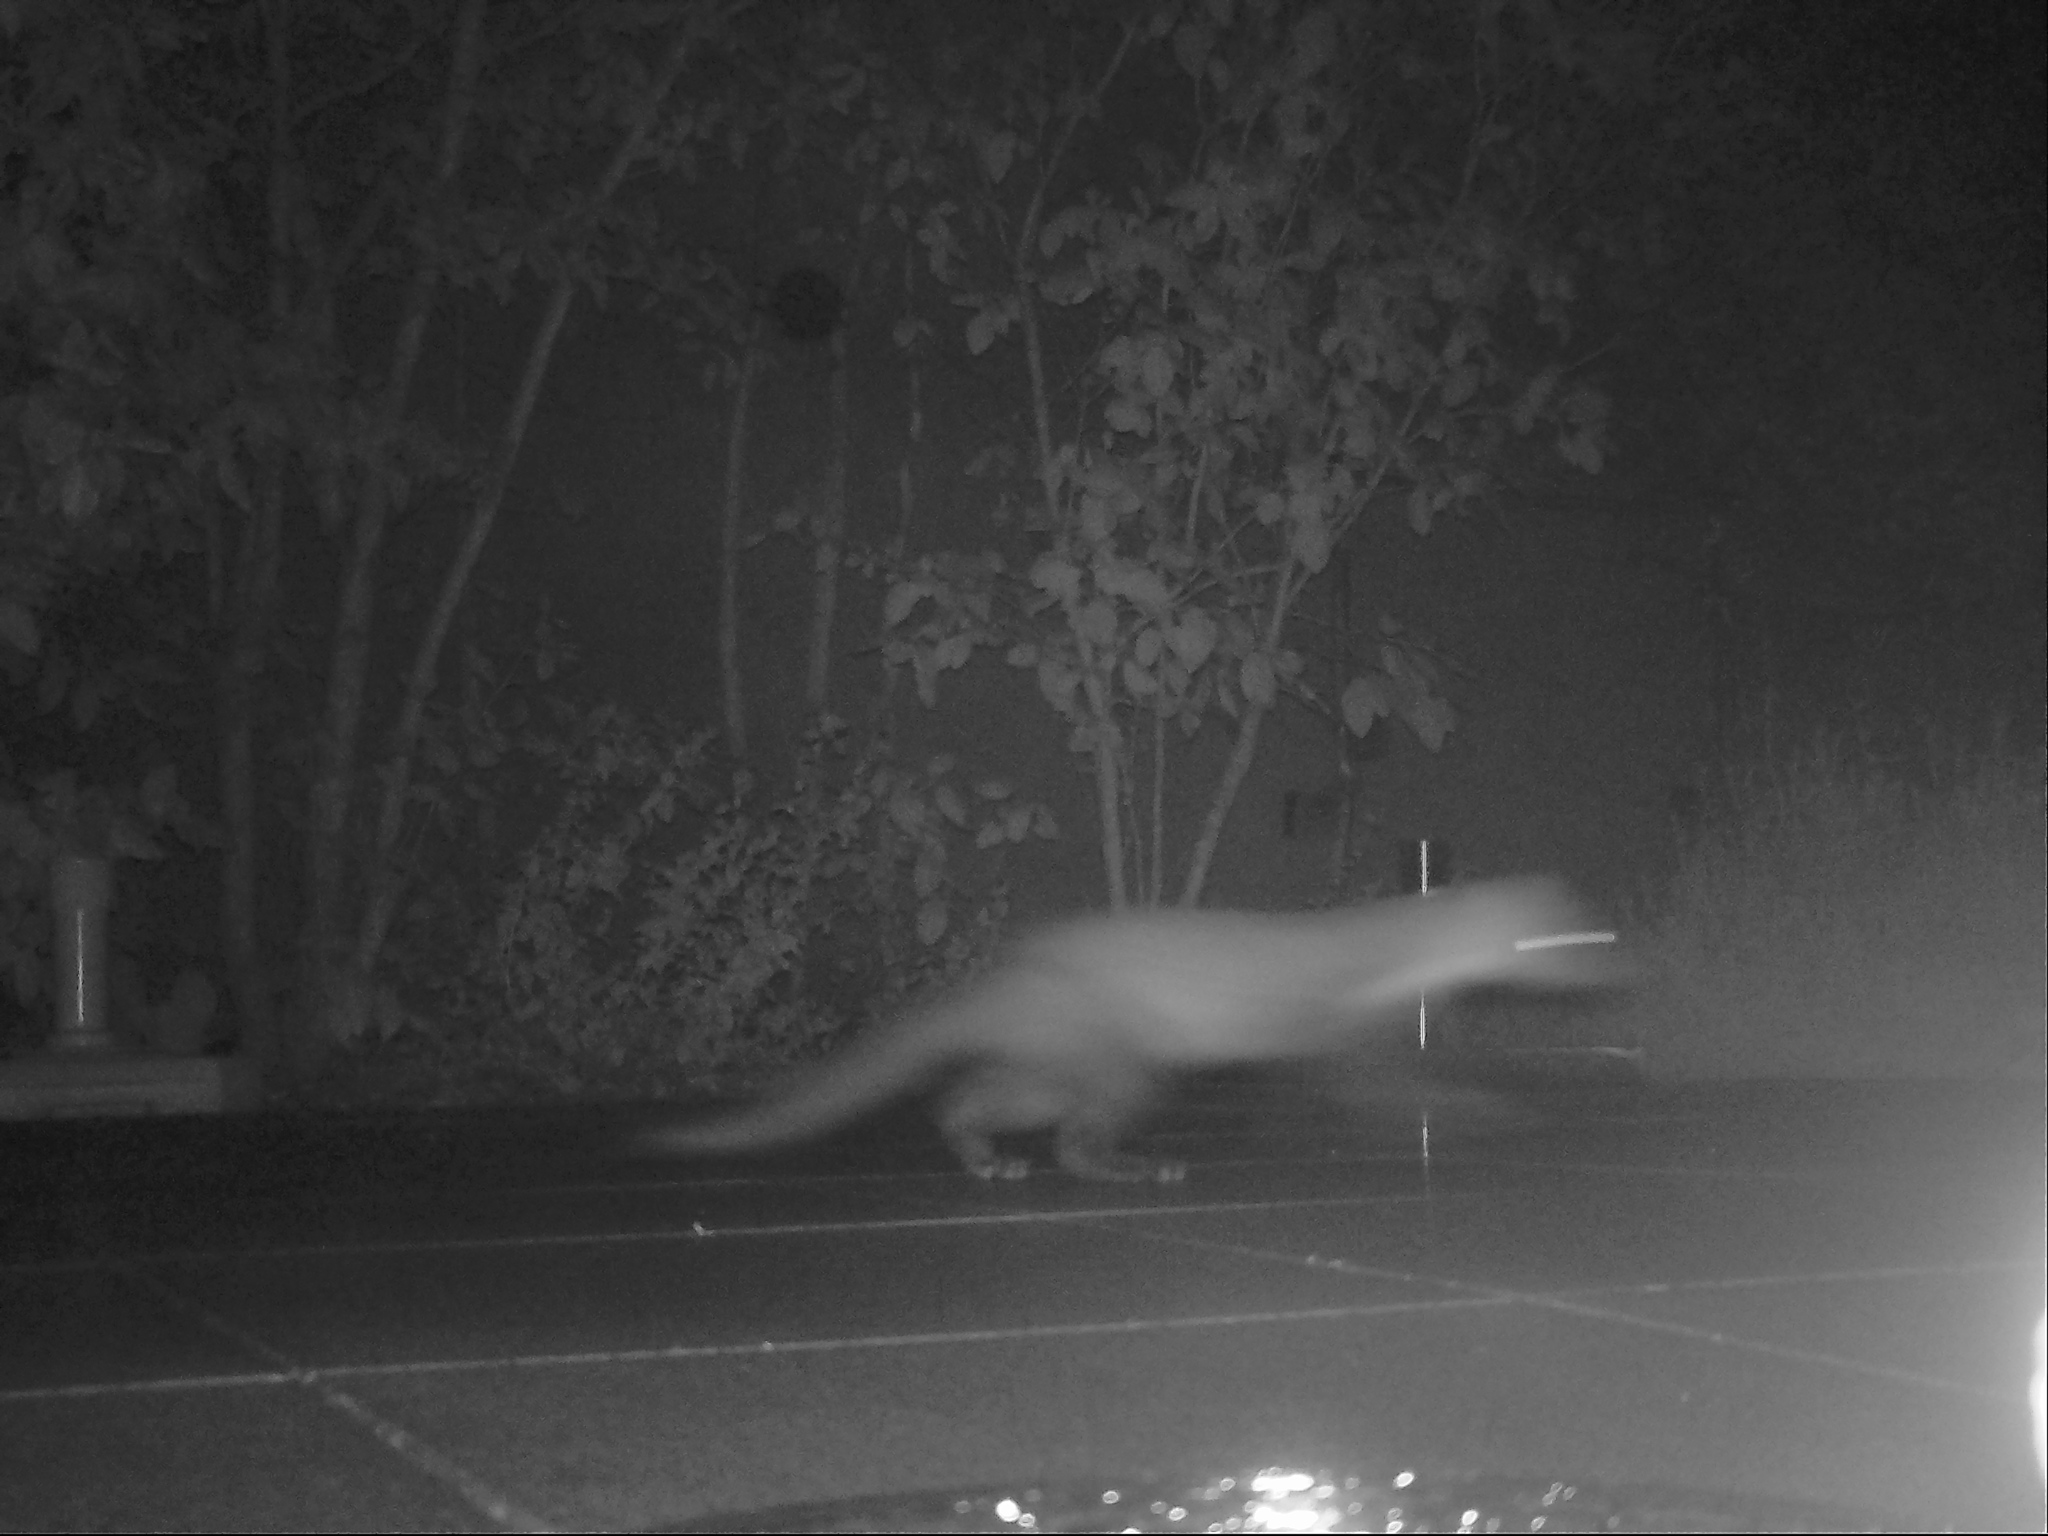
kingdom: Animalia
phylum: Chordata
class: Mammalia
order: Carnivora
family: Mustelidae
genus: Martes
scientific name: Martes foina
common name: Beech marten
